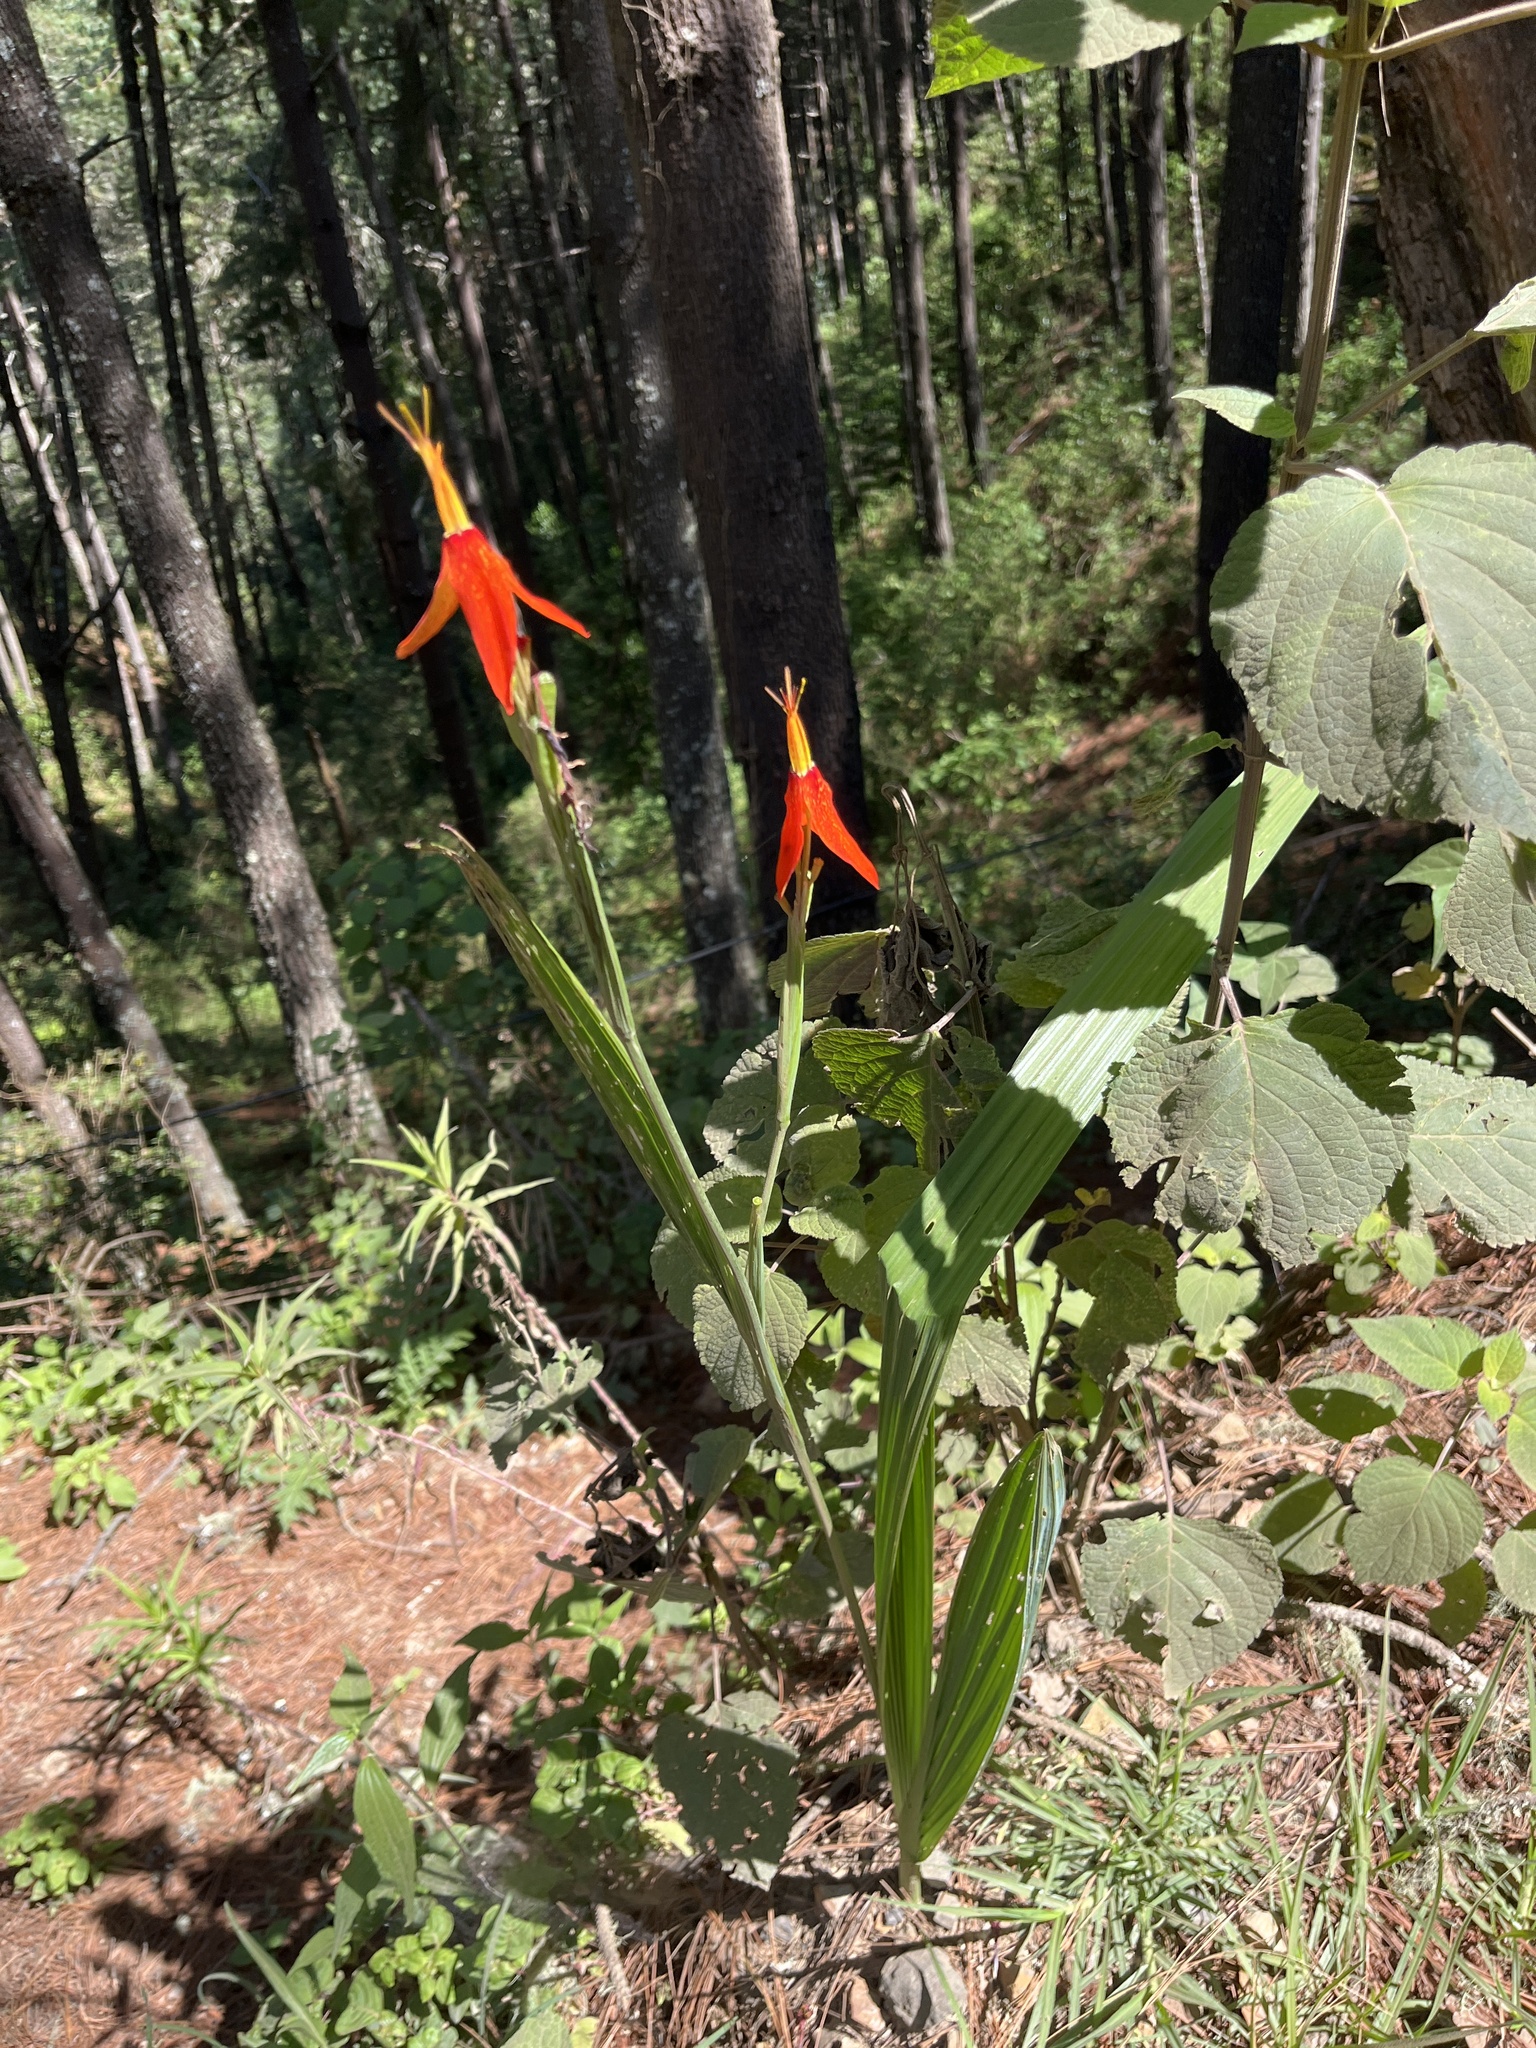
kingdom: Plantae
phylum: Tracheophyta
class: Liliopsida
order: Asparagales
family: Iridaceae
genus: Tigridia
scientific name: Tigridia orthantha
